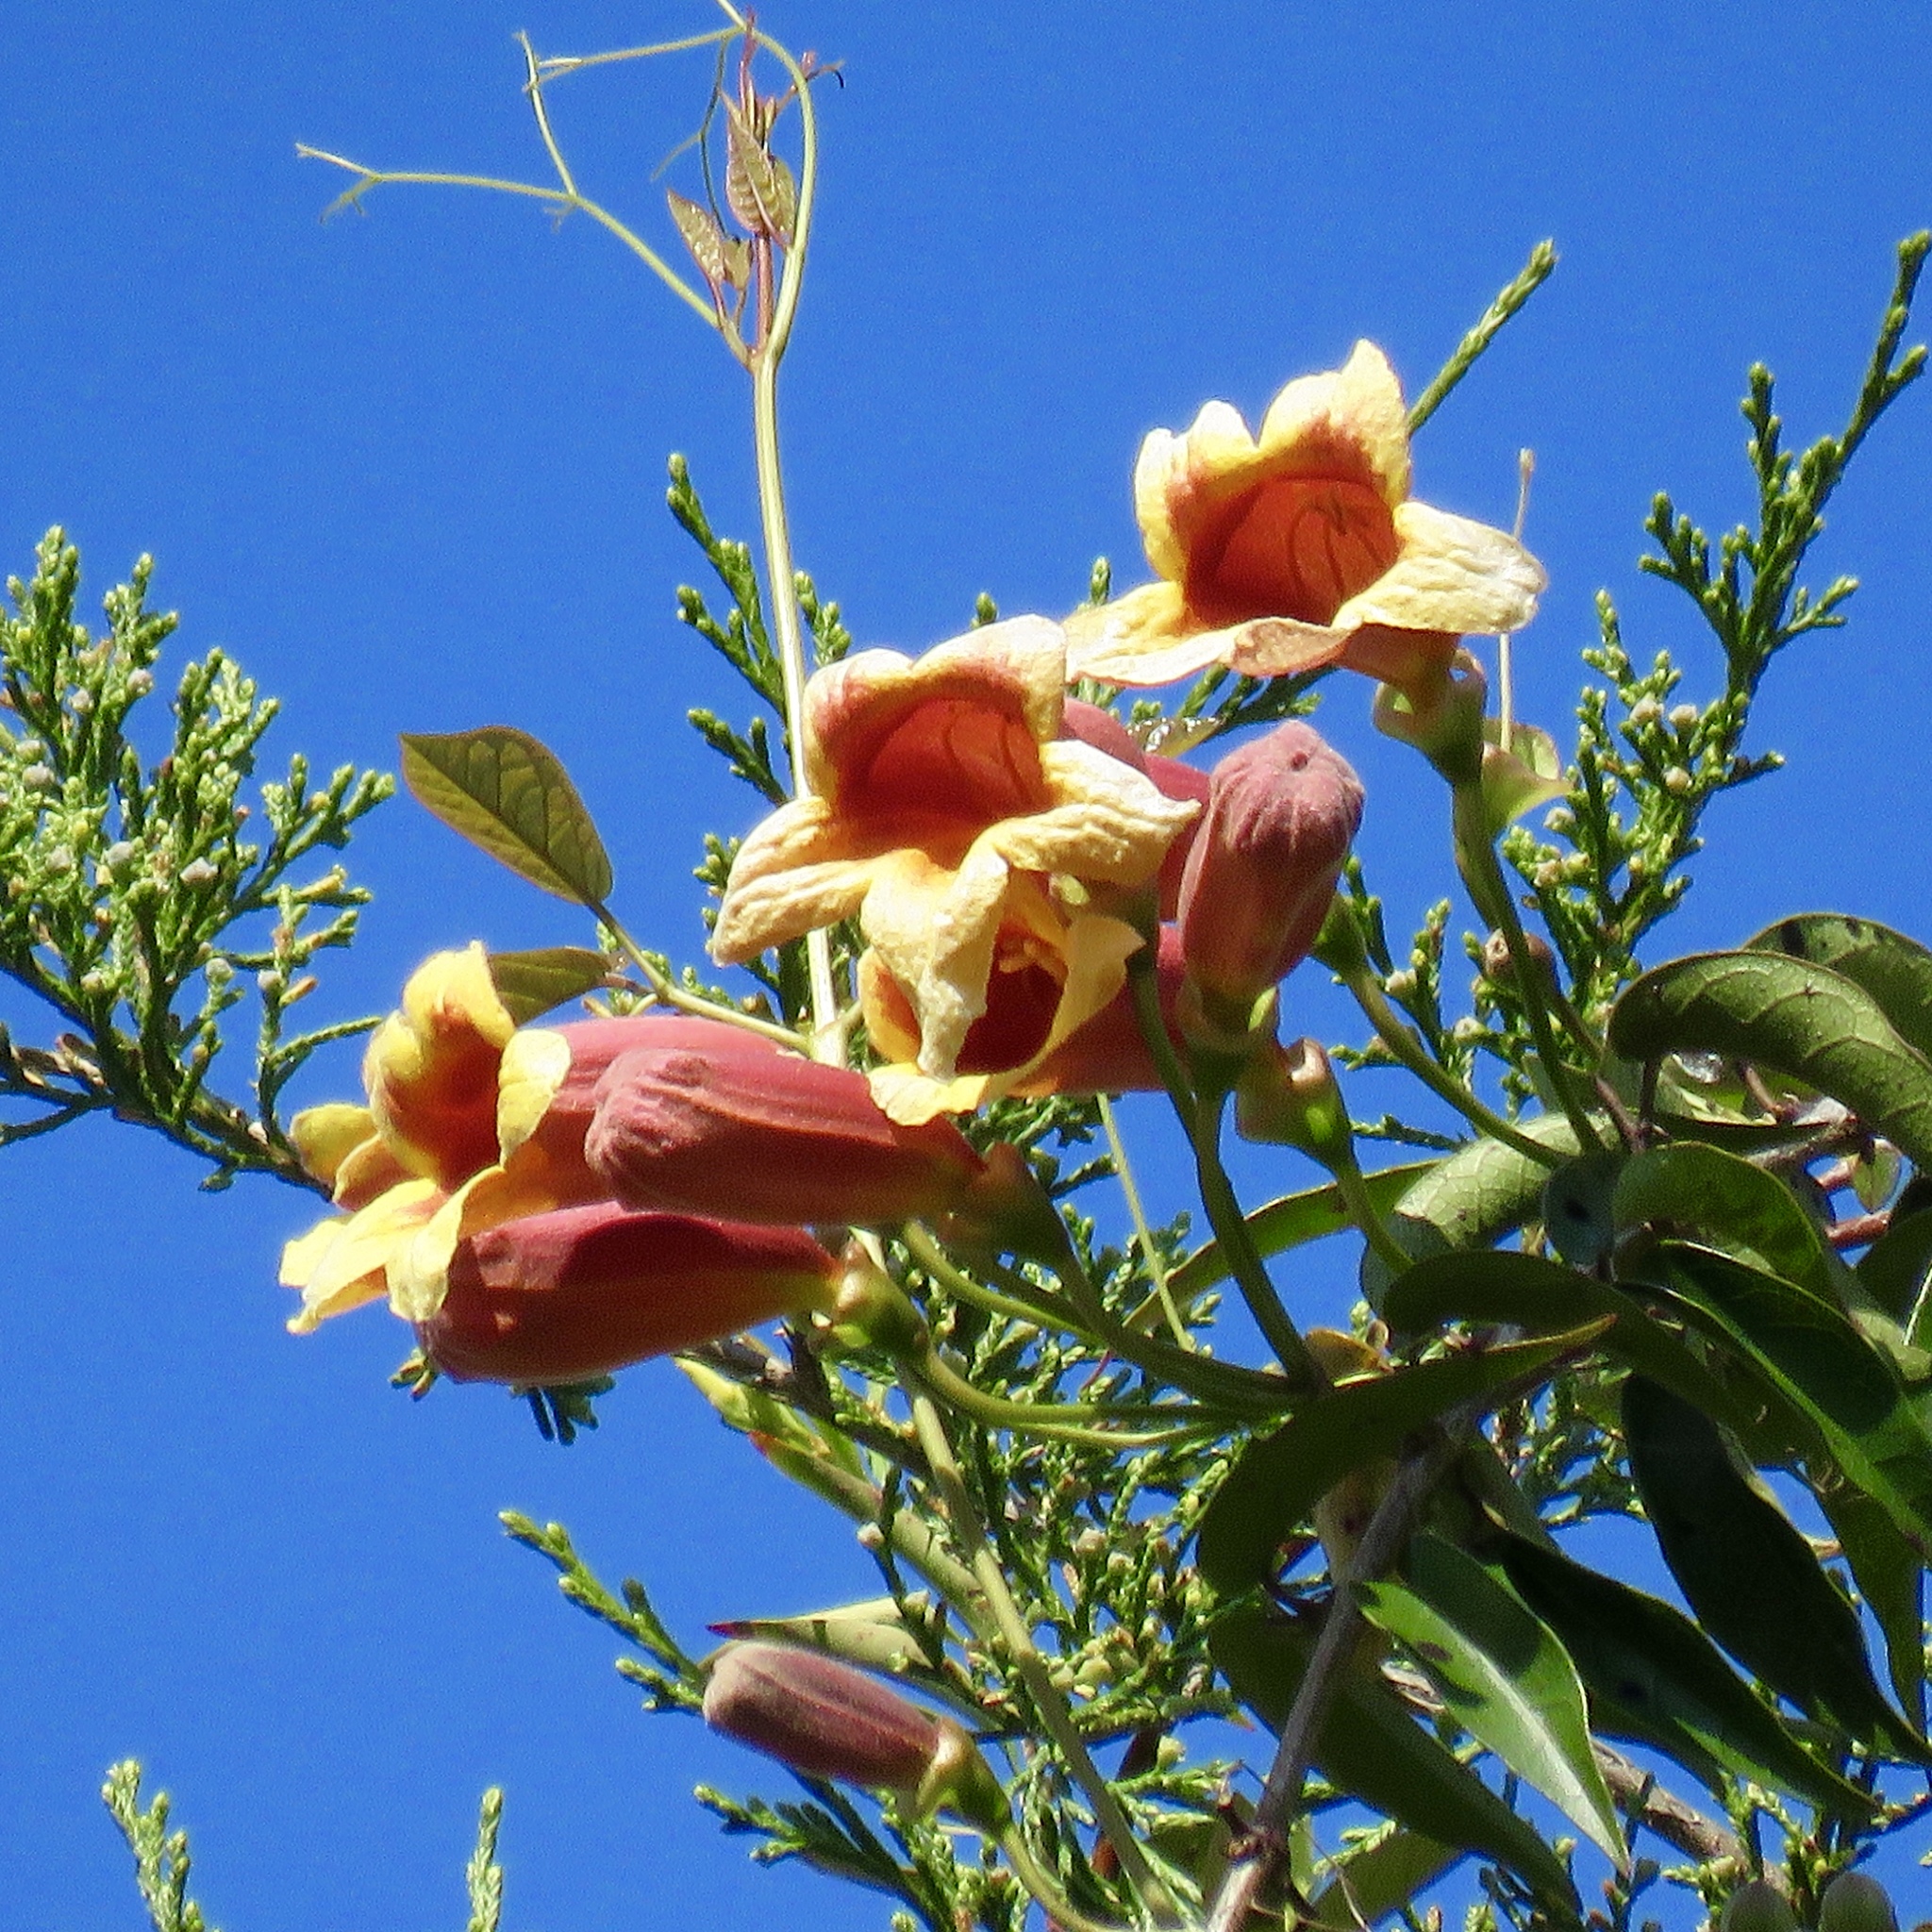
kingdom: Plantae
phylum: Tracheophyta
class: Magnoliopsida
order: Lamiales
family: Bignoniaceae
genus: Bignonia
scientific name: Bignonia capreolata
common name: Crossvine
